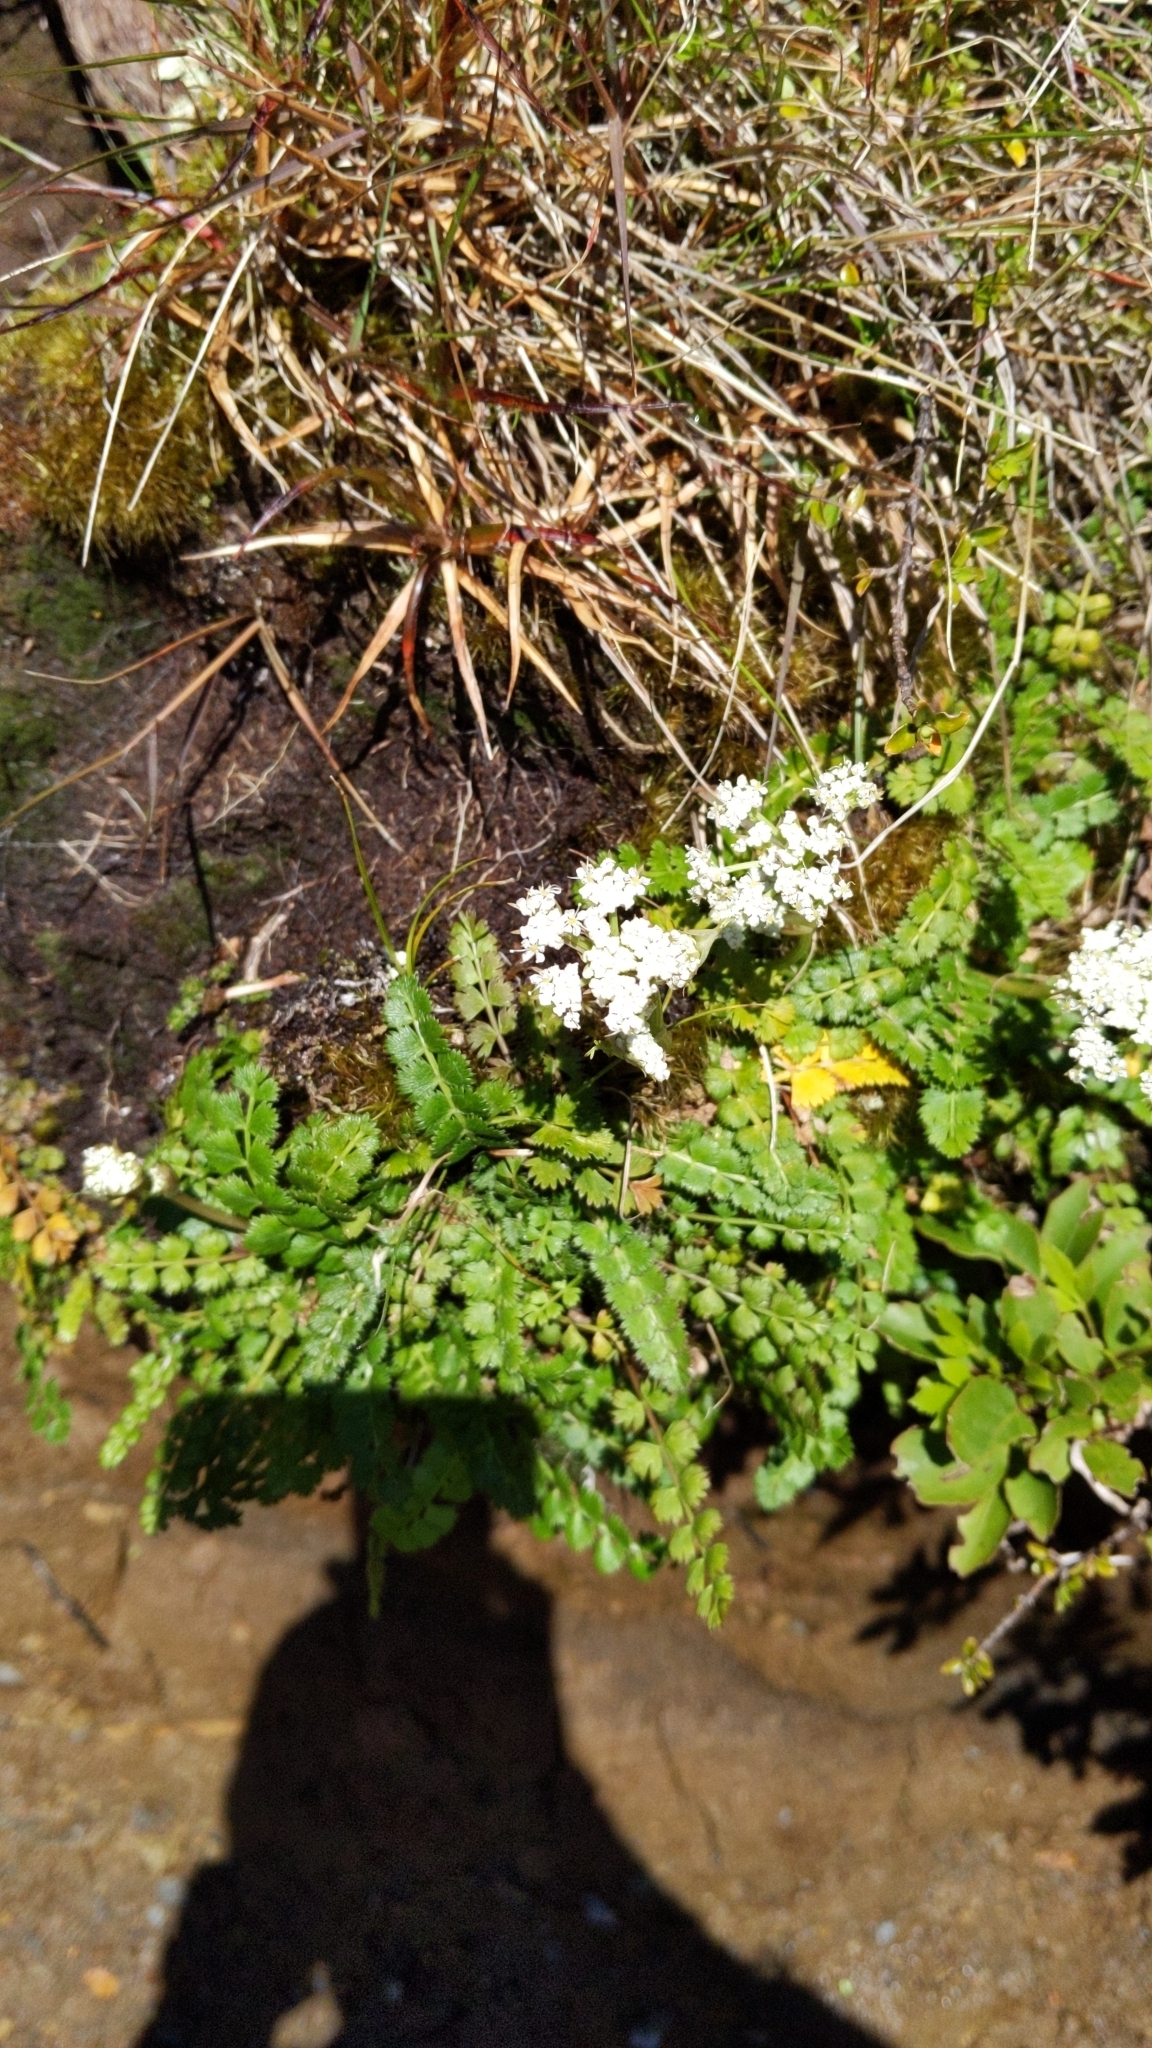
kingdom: Plantae
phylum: Tracheophyta
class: Magnoliopsida
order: Apiales
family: Apiaceae
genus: Anisotome
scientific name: Anisotome aromatica
